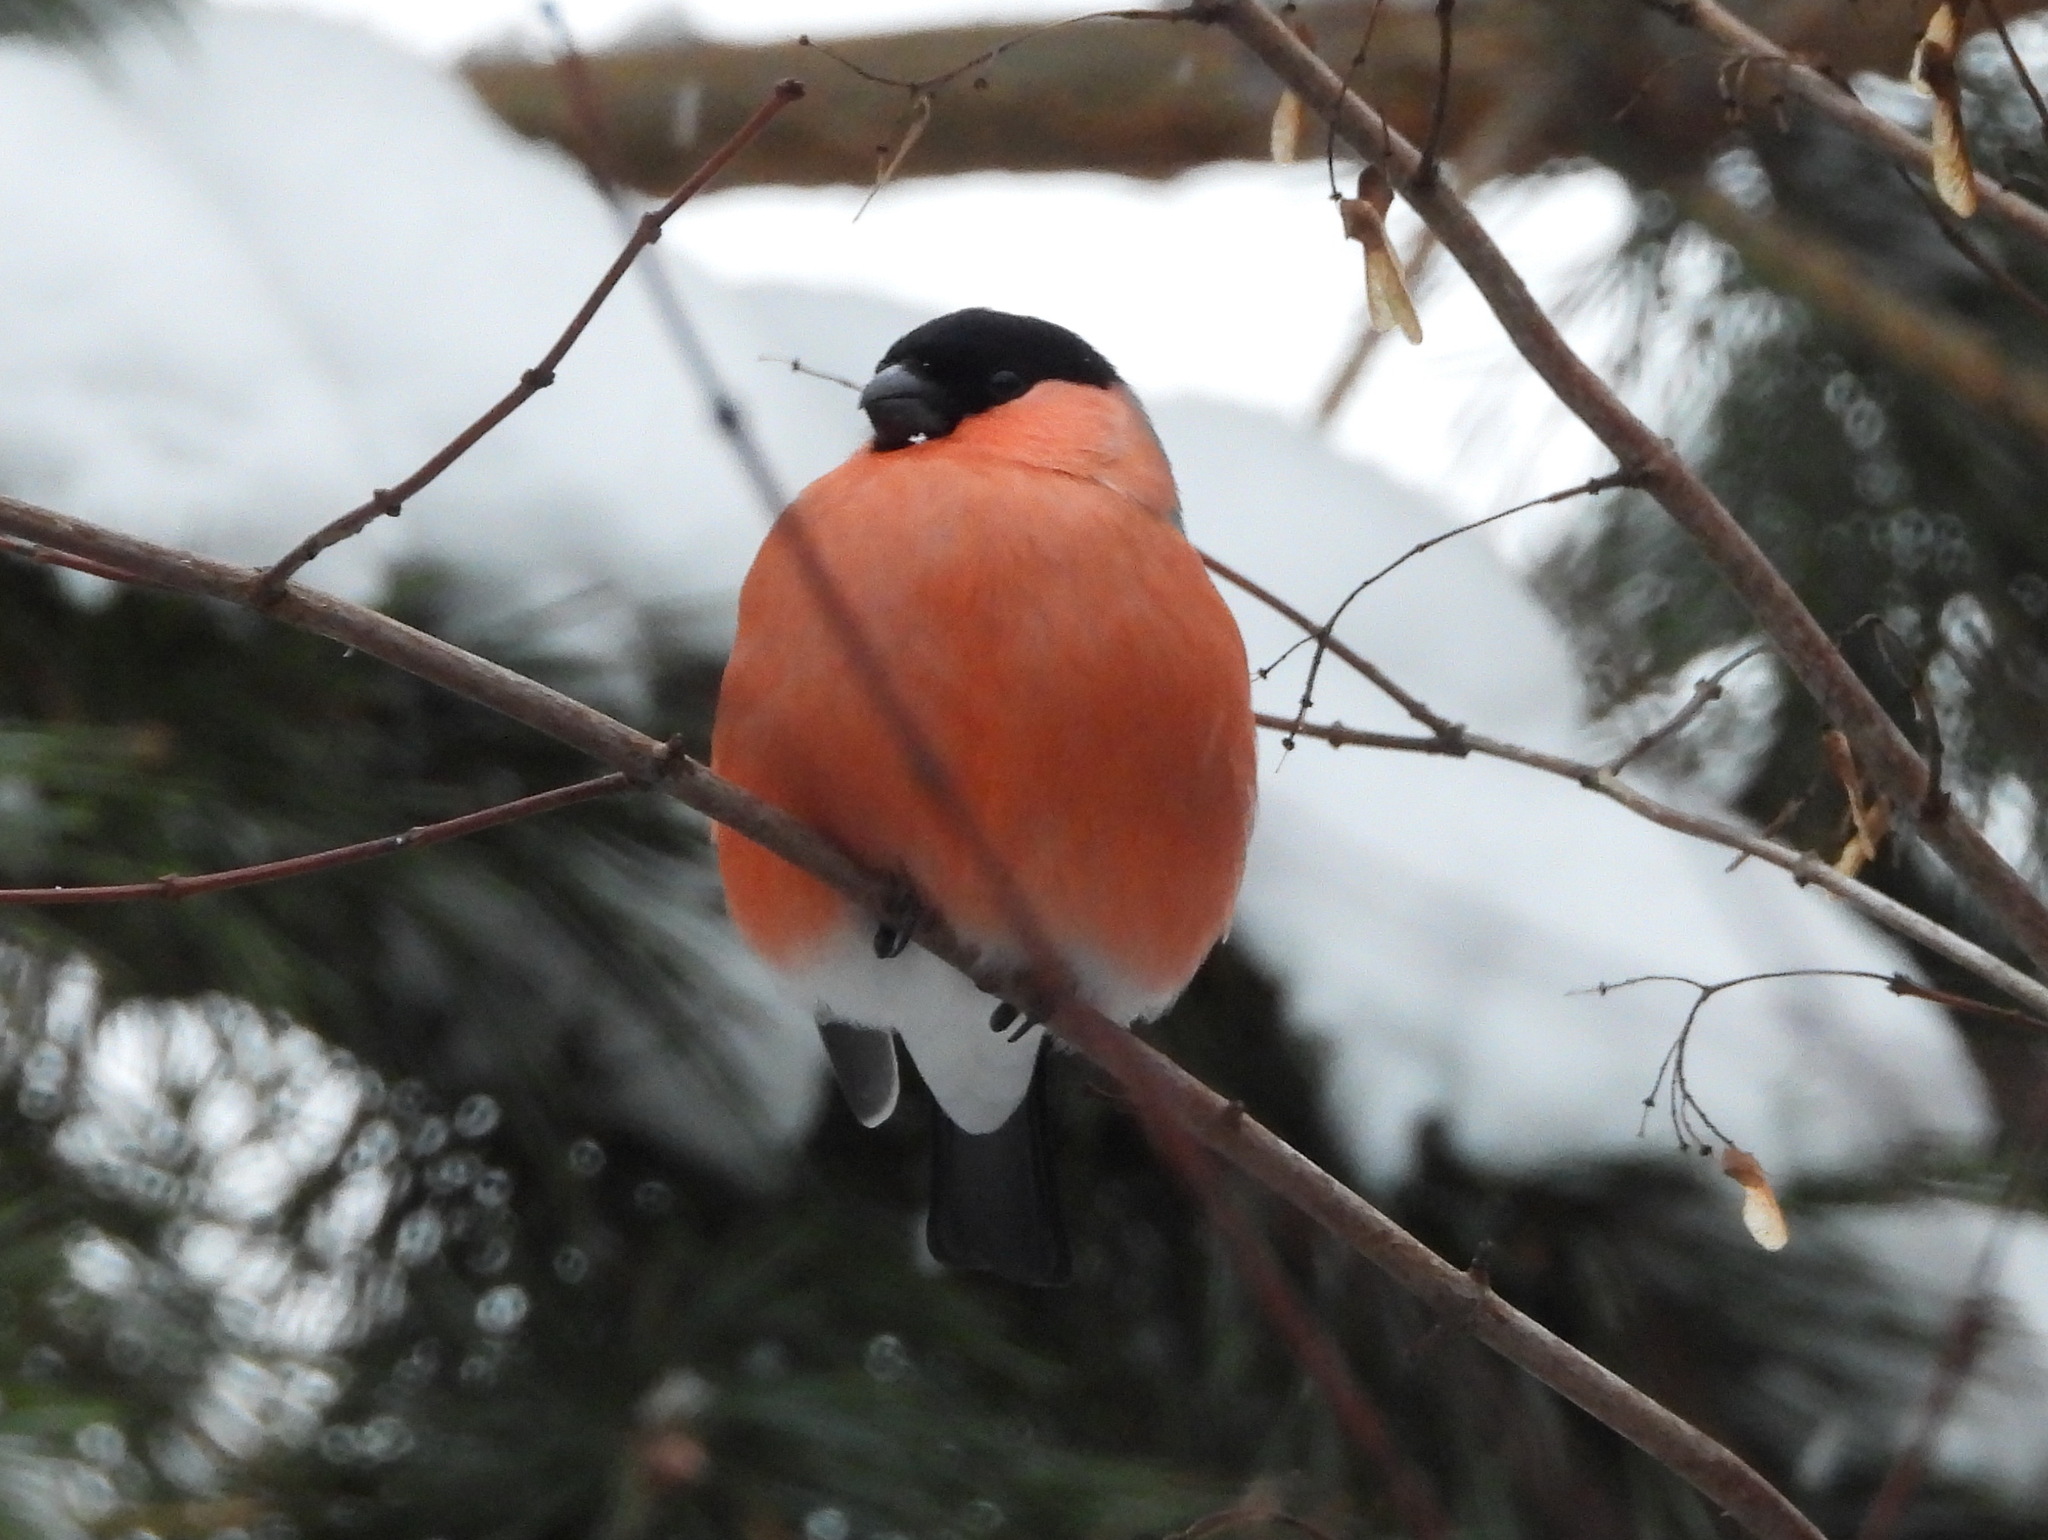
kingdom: Animalia
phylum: Chordata
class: Aves
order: Passeriformes
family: Fringillidae
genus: Pyrrhula
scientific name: Pyrrhula pyrrhula
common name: Eurasian bullfinch
